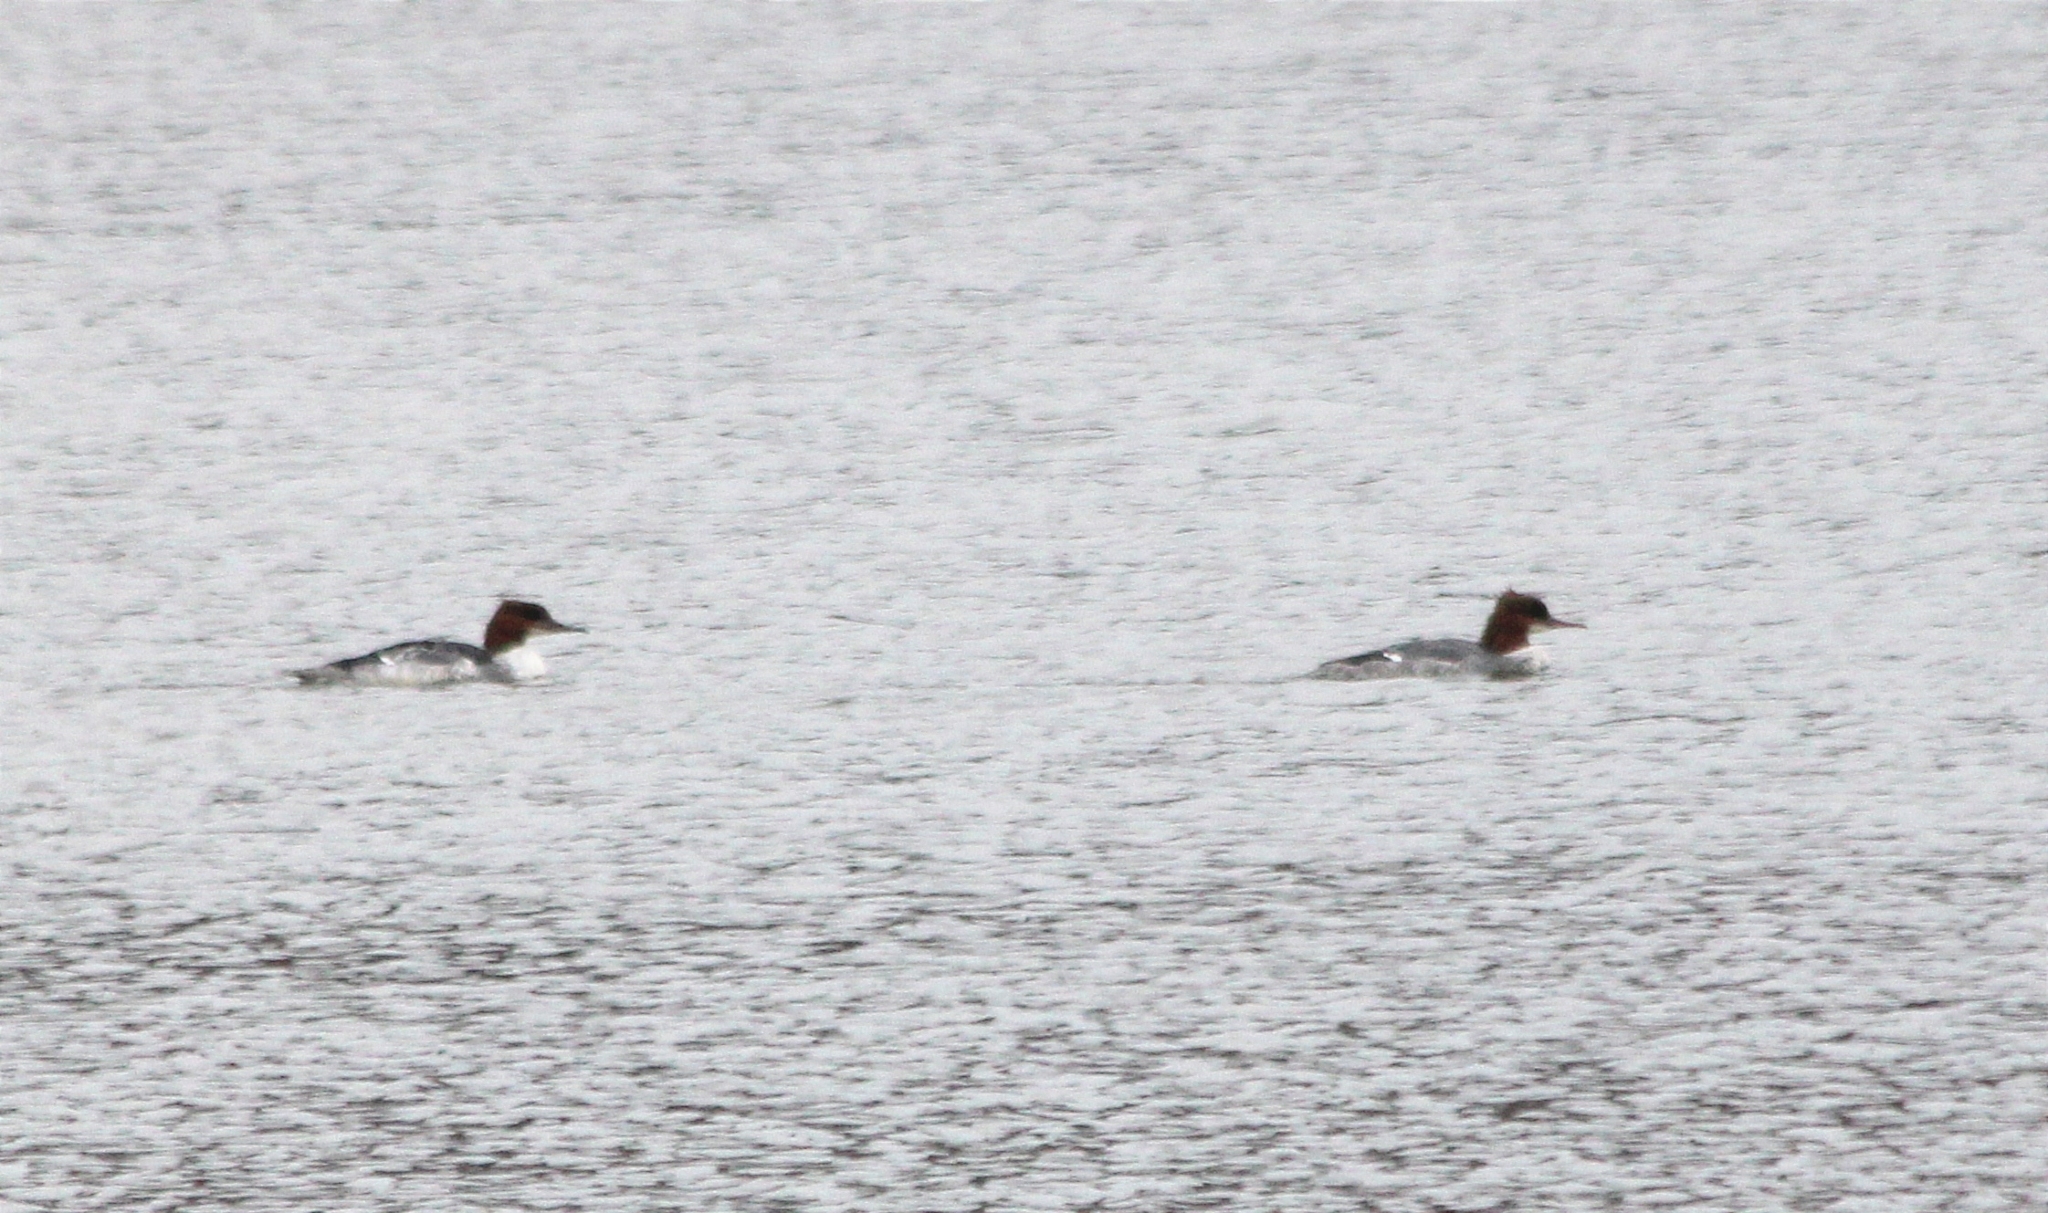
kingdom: Animalia
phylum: Chordata
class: Aves
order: Anseriformes
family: Anatidae
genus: Mergus
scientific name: Mergus merganser
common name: Common merganser
